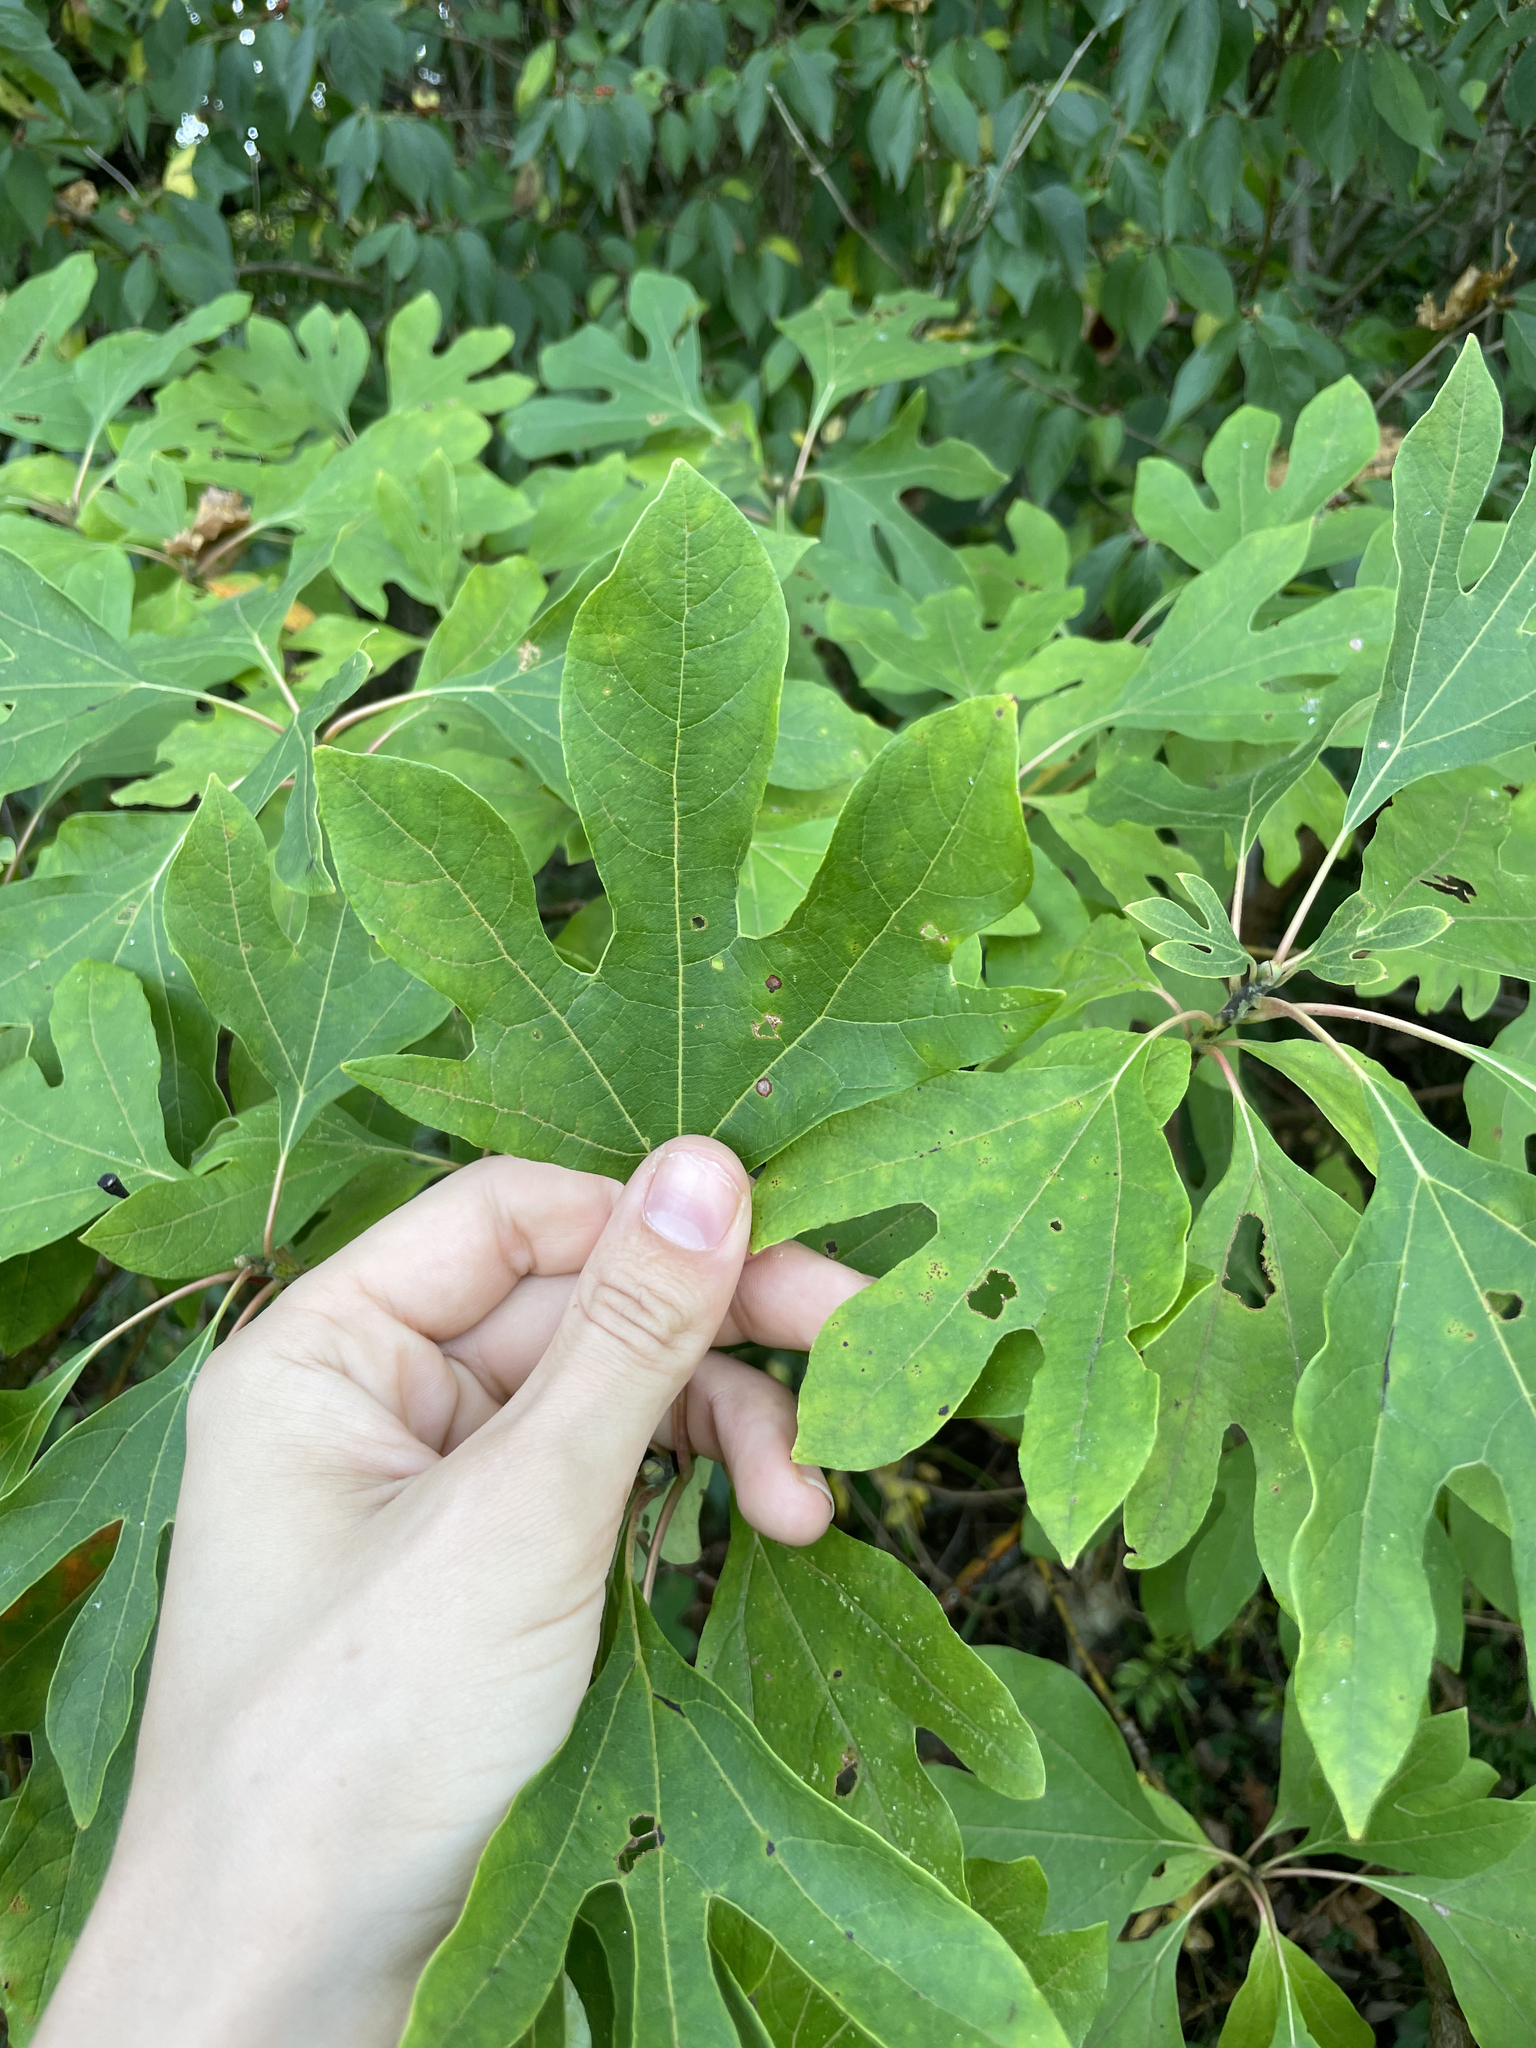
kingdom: Plantae
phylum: Tracheophyta
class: Magnoliopsida
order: Laurales
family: Lauraceae
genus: Sassafras
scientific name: Sassafras albidum
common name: Sassafras
